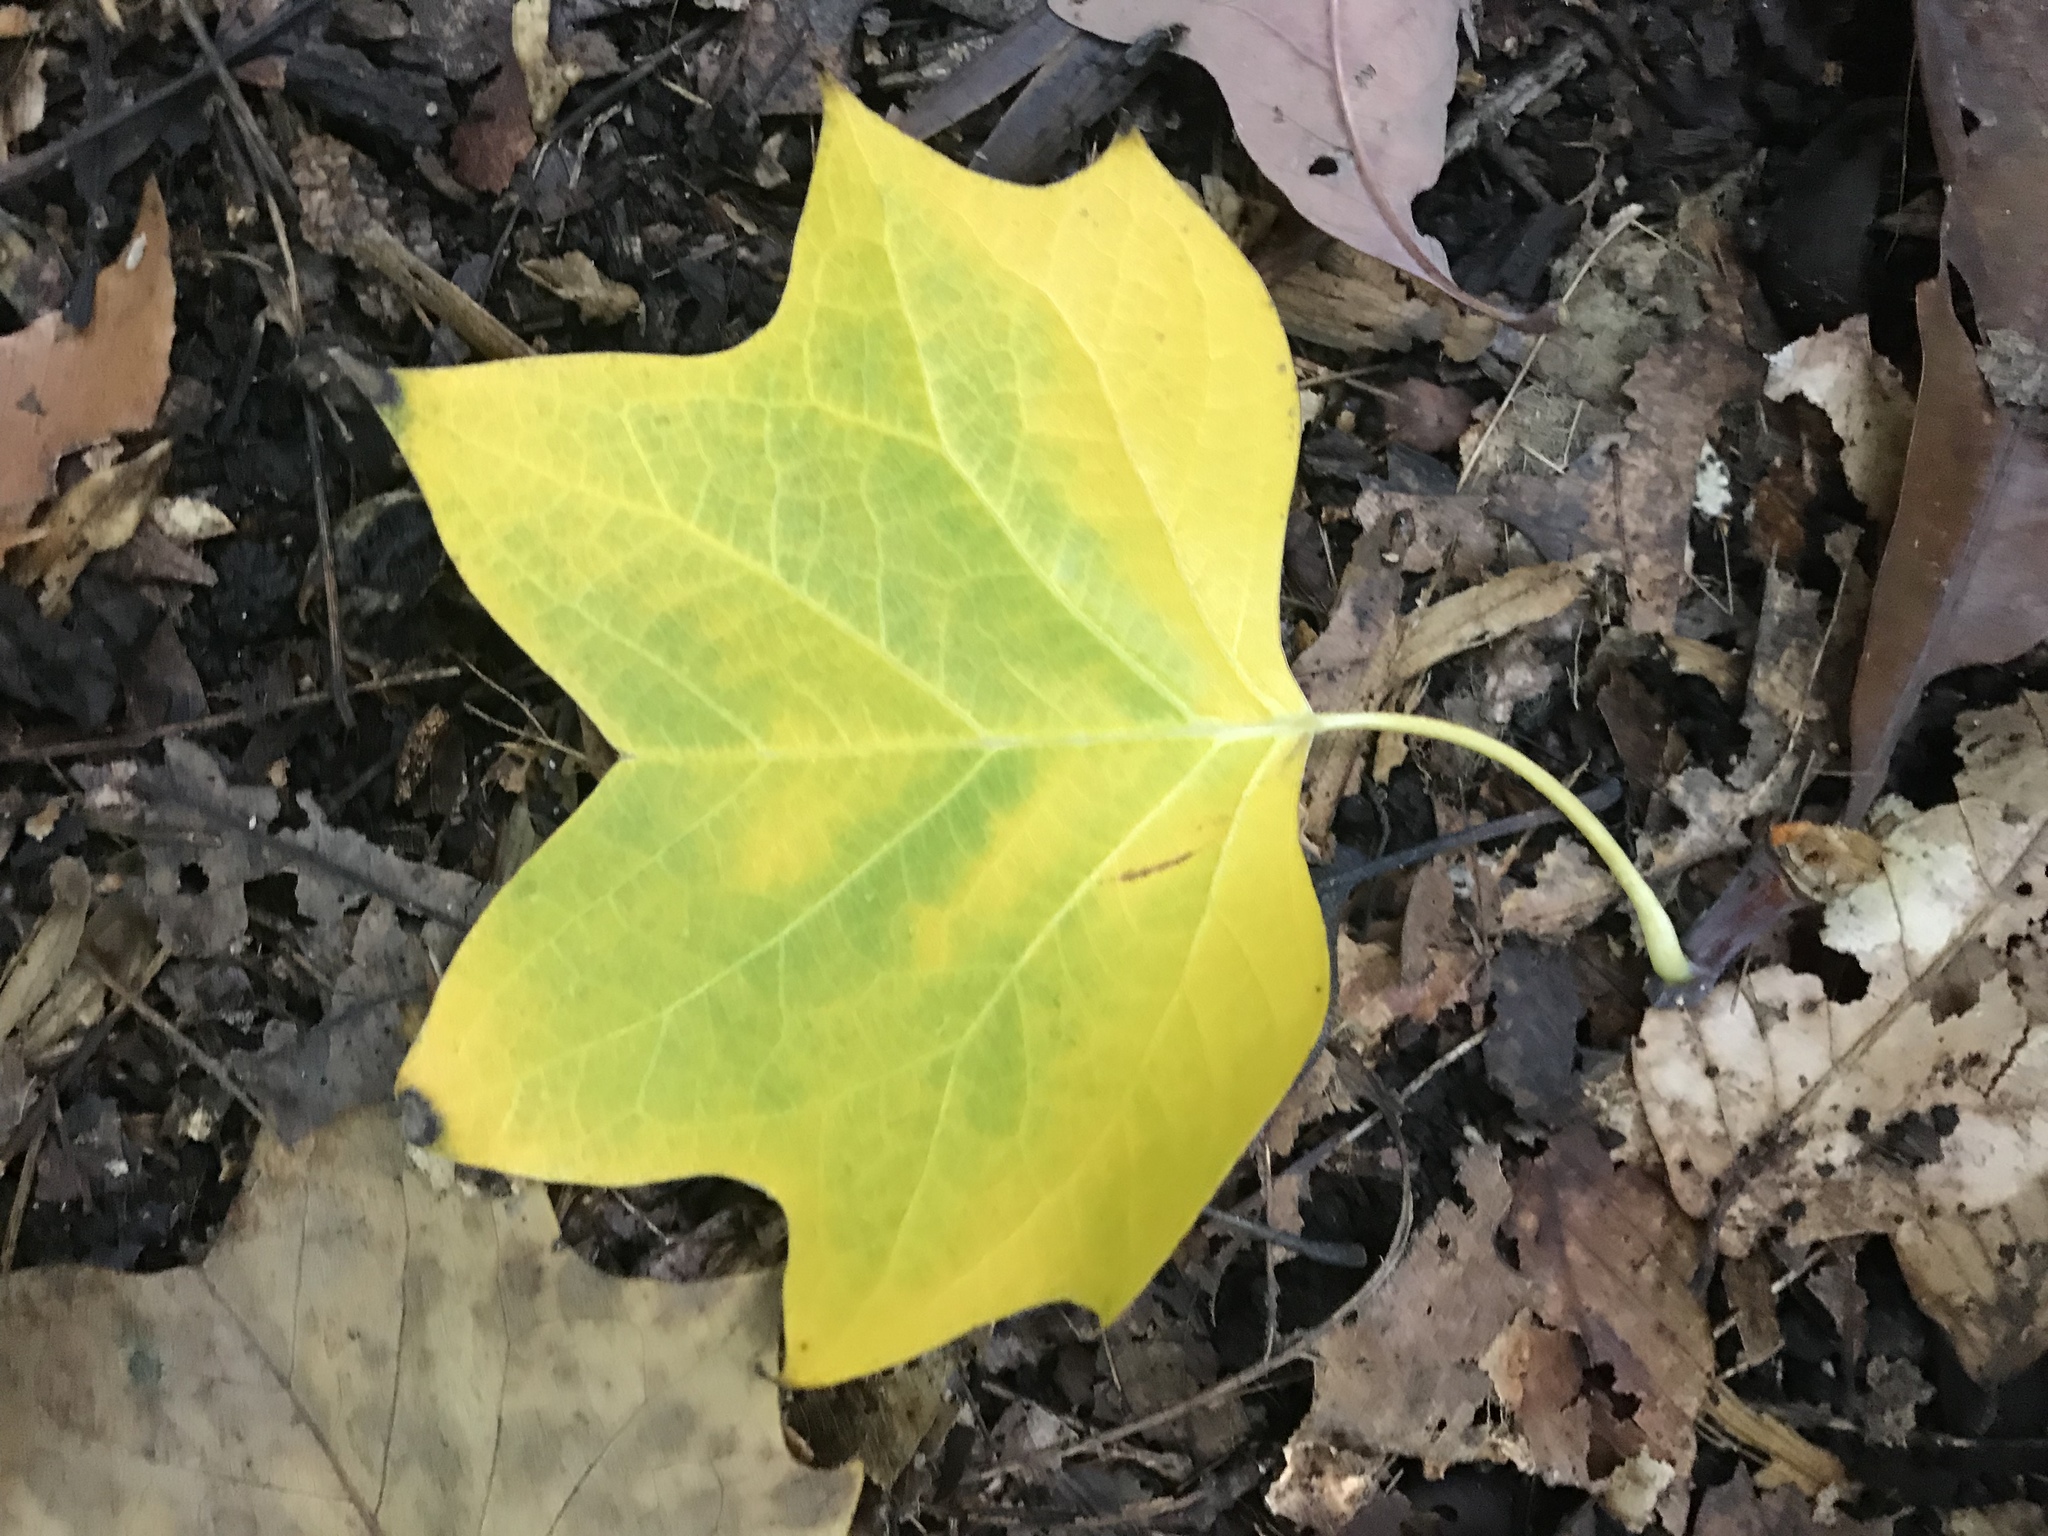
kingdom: Plantae
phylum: Tracheophyta
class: Magnoliopsida
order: Magnoliales
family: Magnoliaceae
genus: Liriodendron
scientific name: Liriodendron tulipifera
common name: Tulip tree
